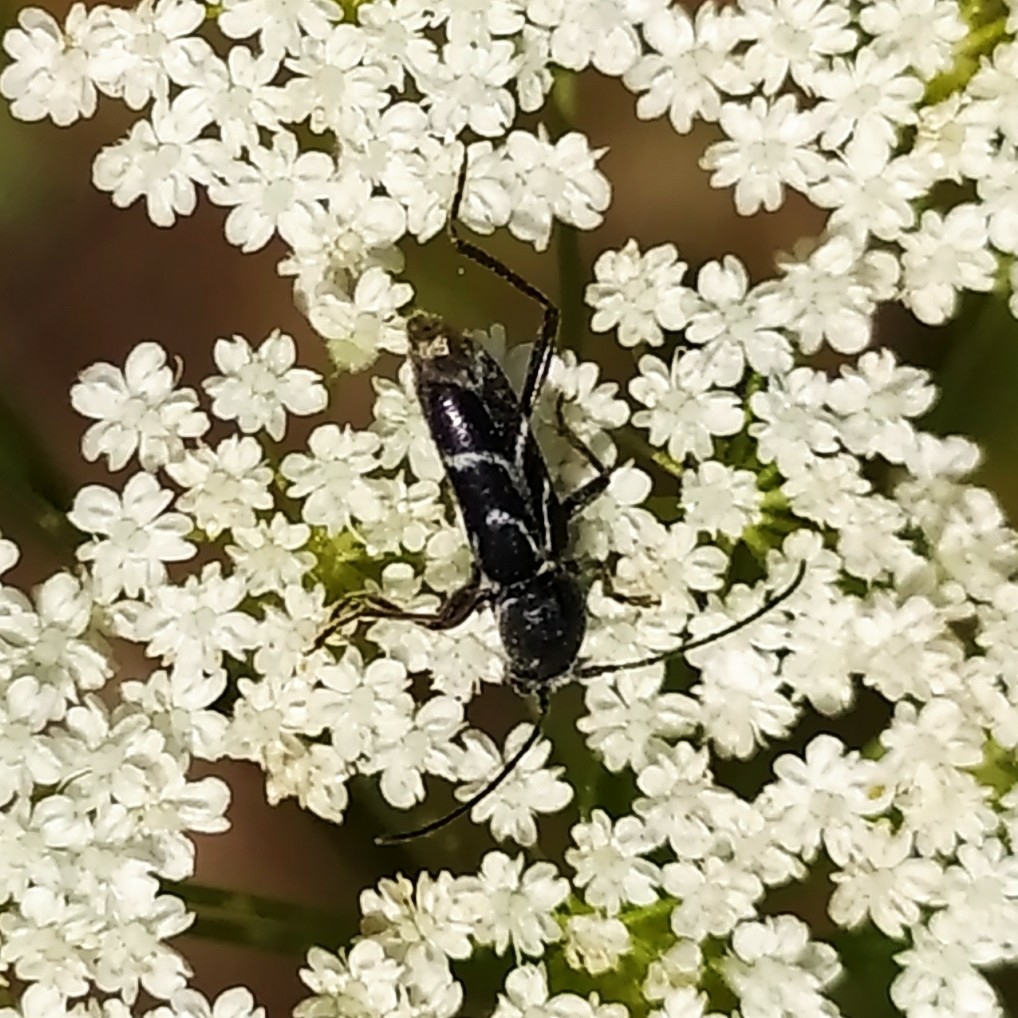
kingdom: Animalia
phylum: Arthropoda
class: Insecta
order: Coleoptera
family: Cerambycidae
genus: Chlorophorus
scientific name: Chlorophorus sartor
